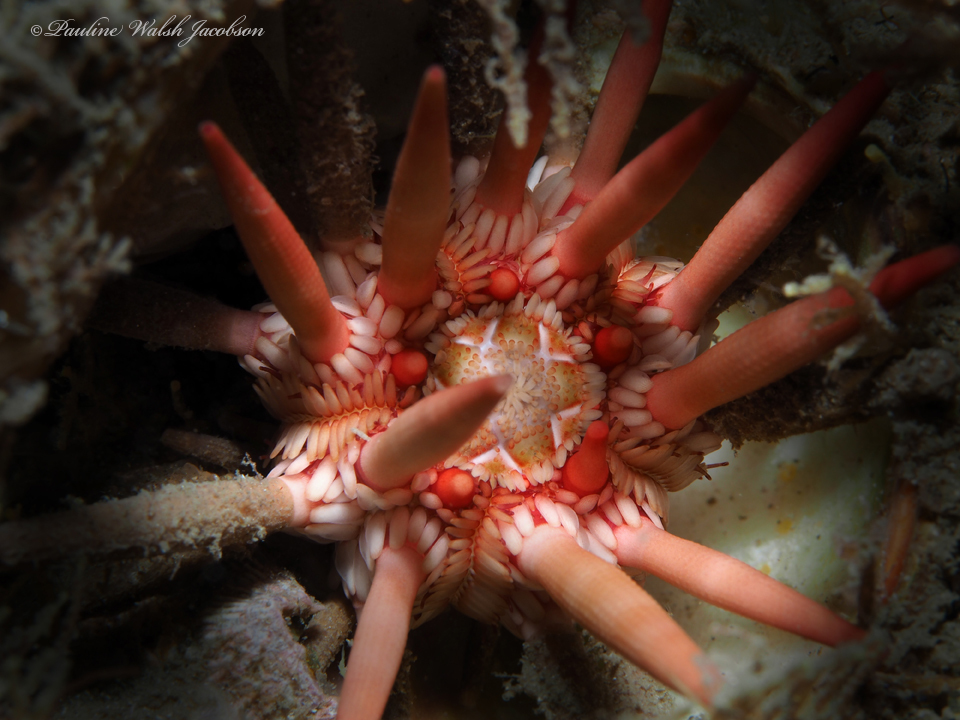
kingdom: Animalia
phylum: Echinodermata
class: Echinoidea
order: Cidaroida
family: Cidaridae
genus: Eucidaris
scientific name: Eucidaris tribuloides
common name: Slate pencil urchin
